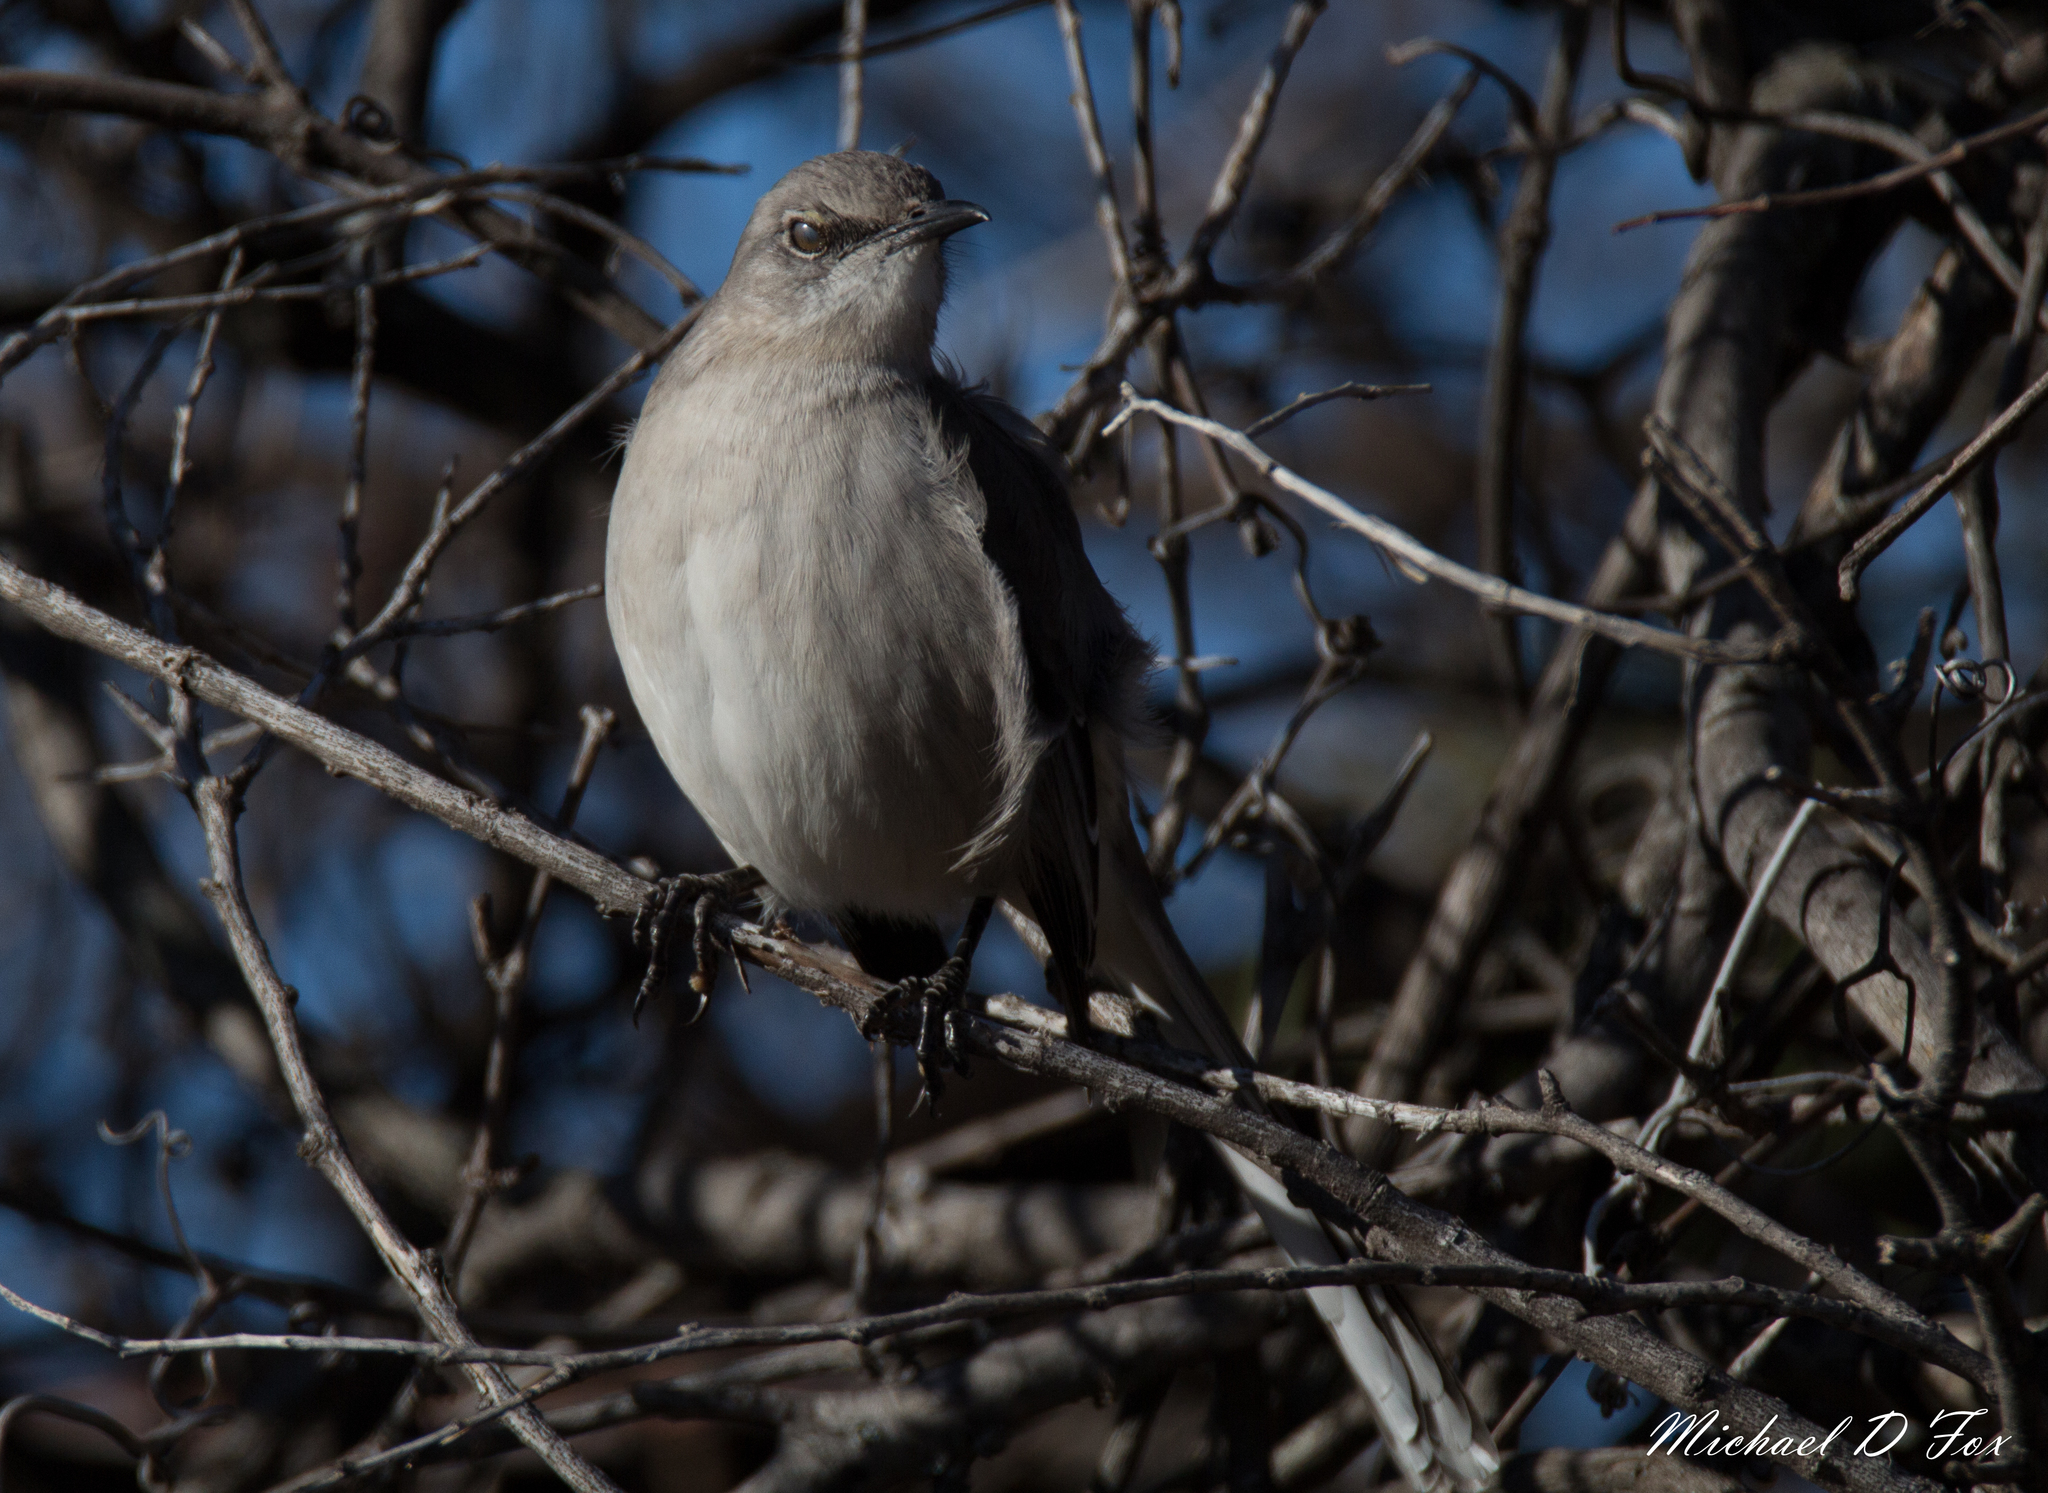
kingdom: Animalia
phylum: Chordata
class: Aves
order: Passeriformes
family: Mimidae
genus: Mimus
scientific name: Mimus polyglottos
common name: Northern mockingbird
